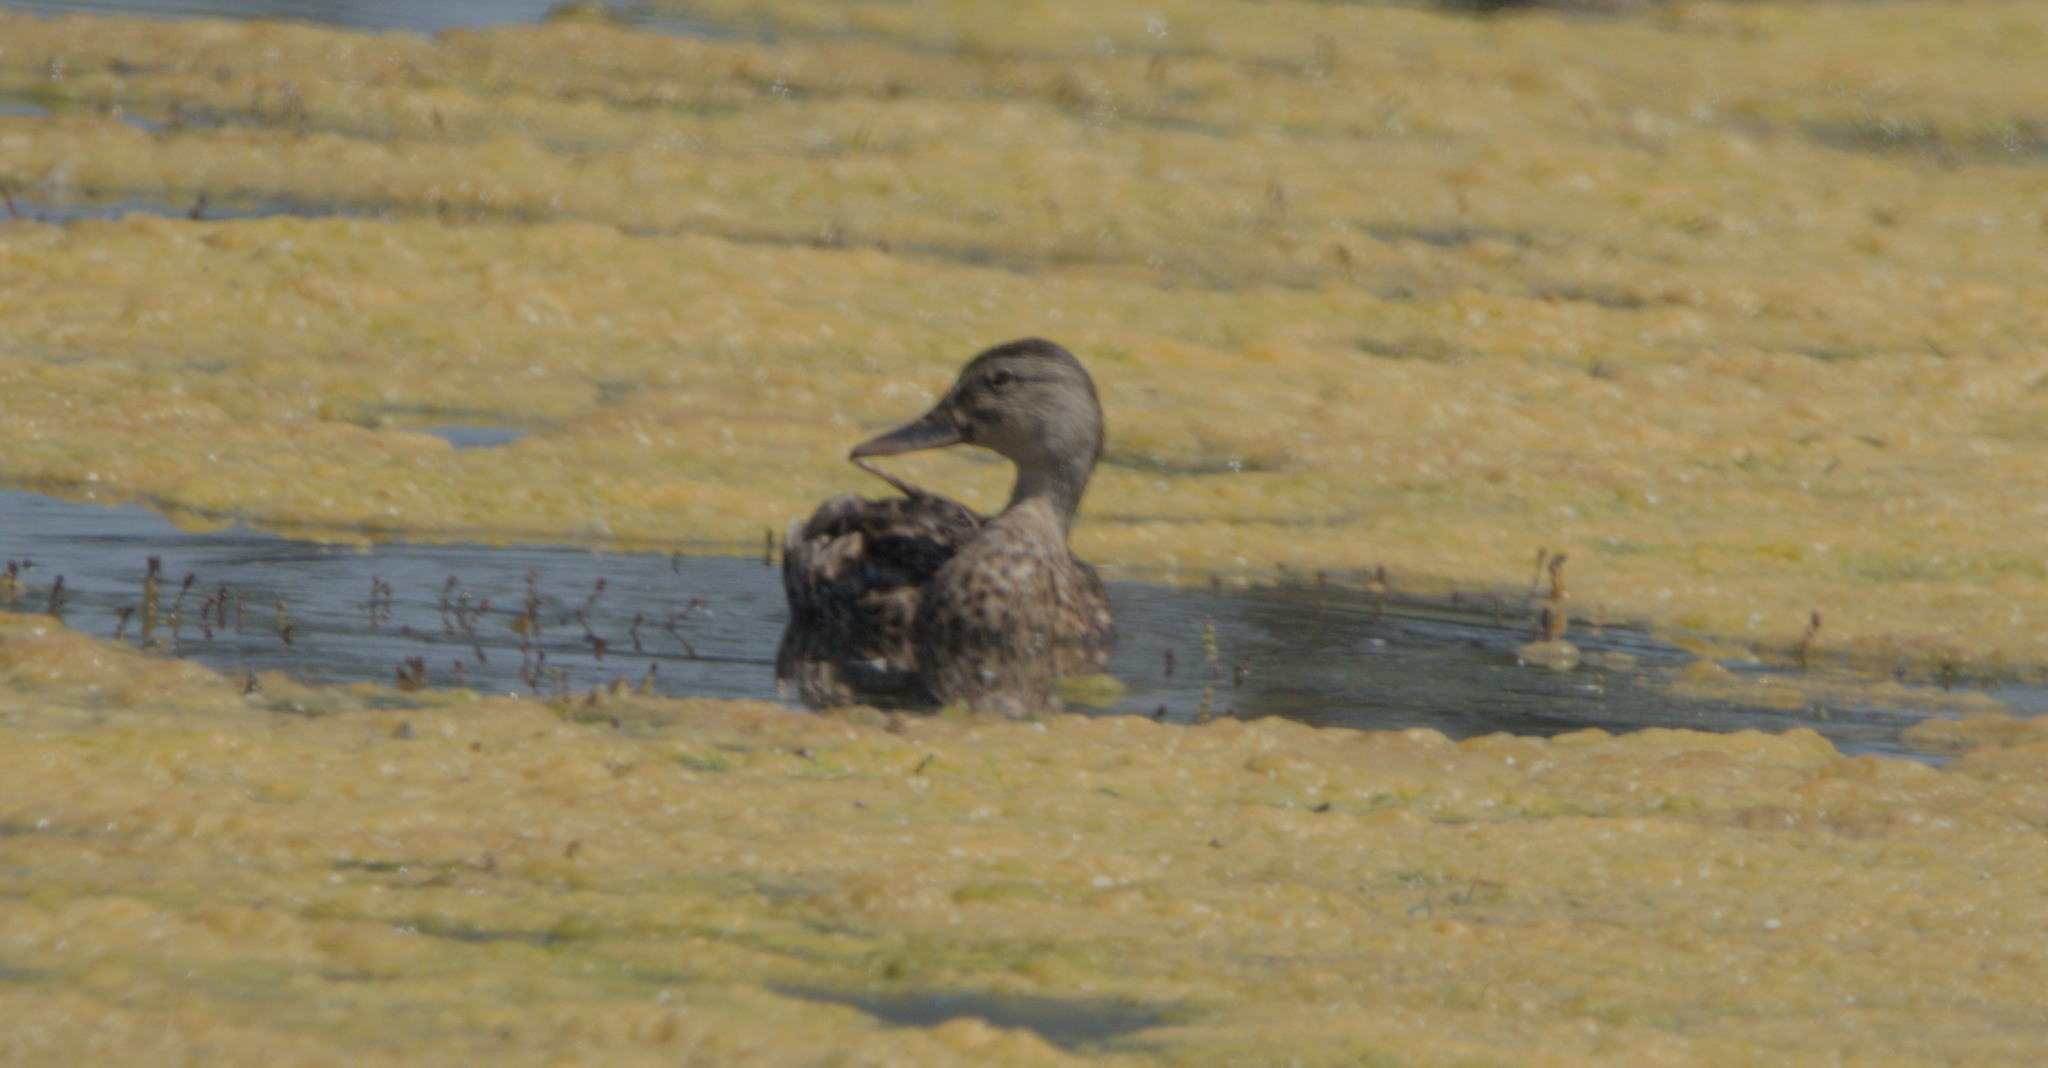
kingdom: Animalia
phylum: Chordata
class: Aves
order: Anseriformes
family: Anatidae
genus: Anas
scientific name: Anas platyrhynchos
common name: Mallard
